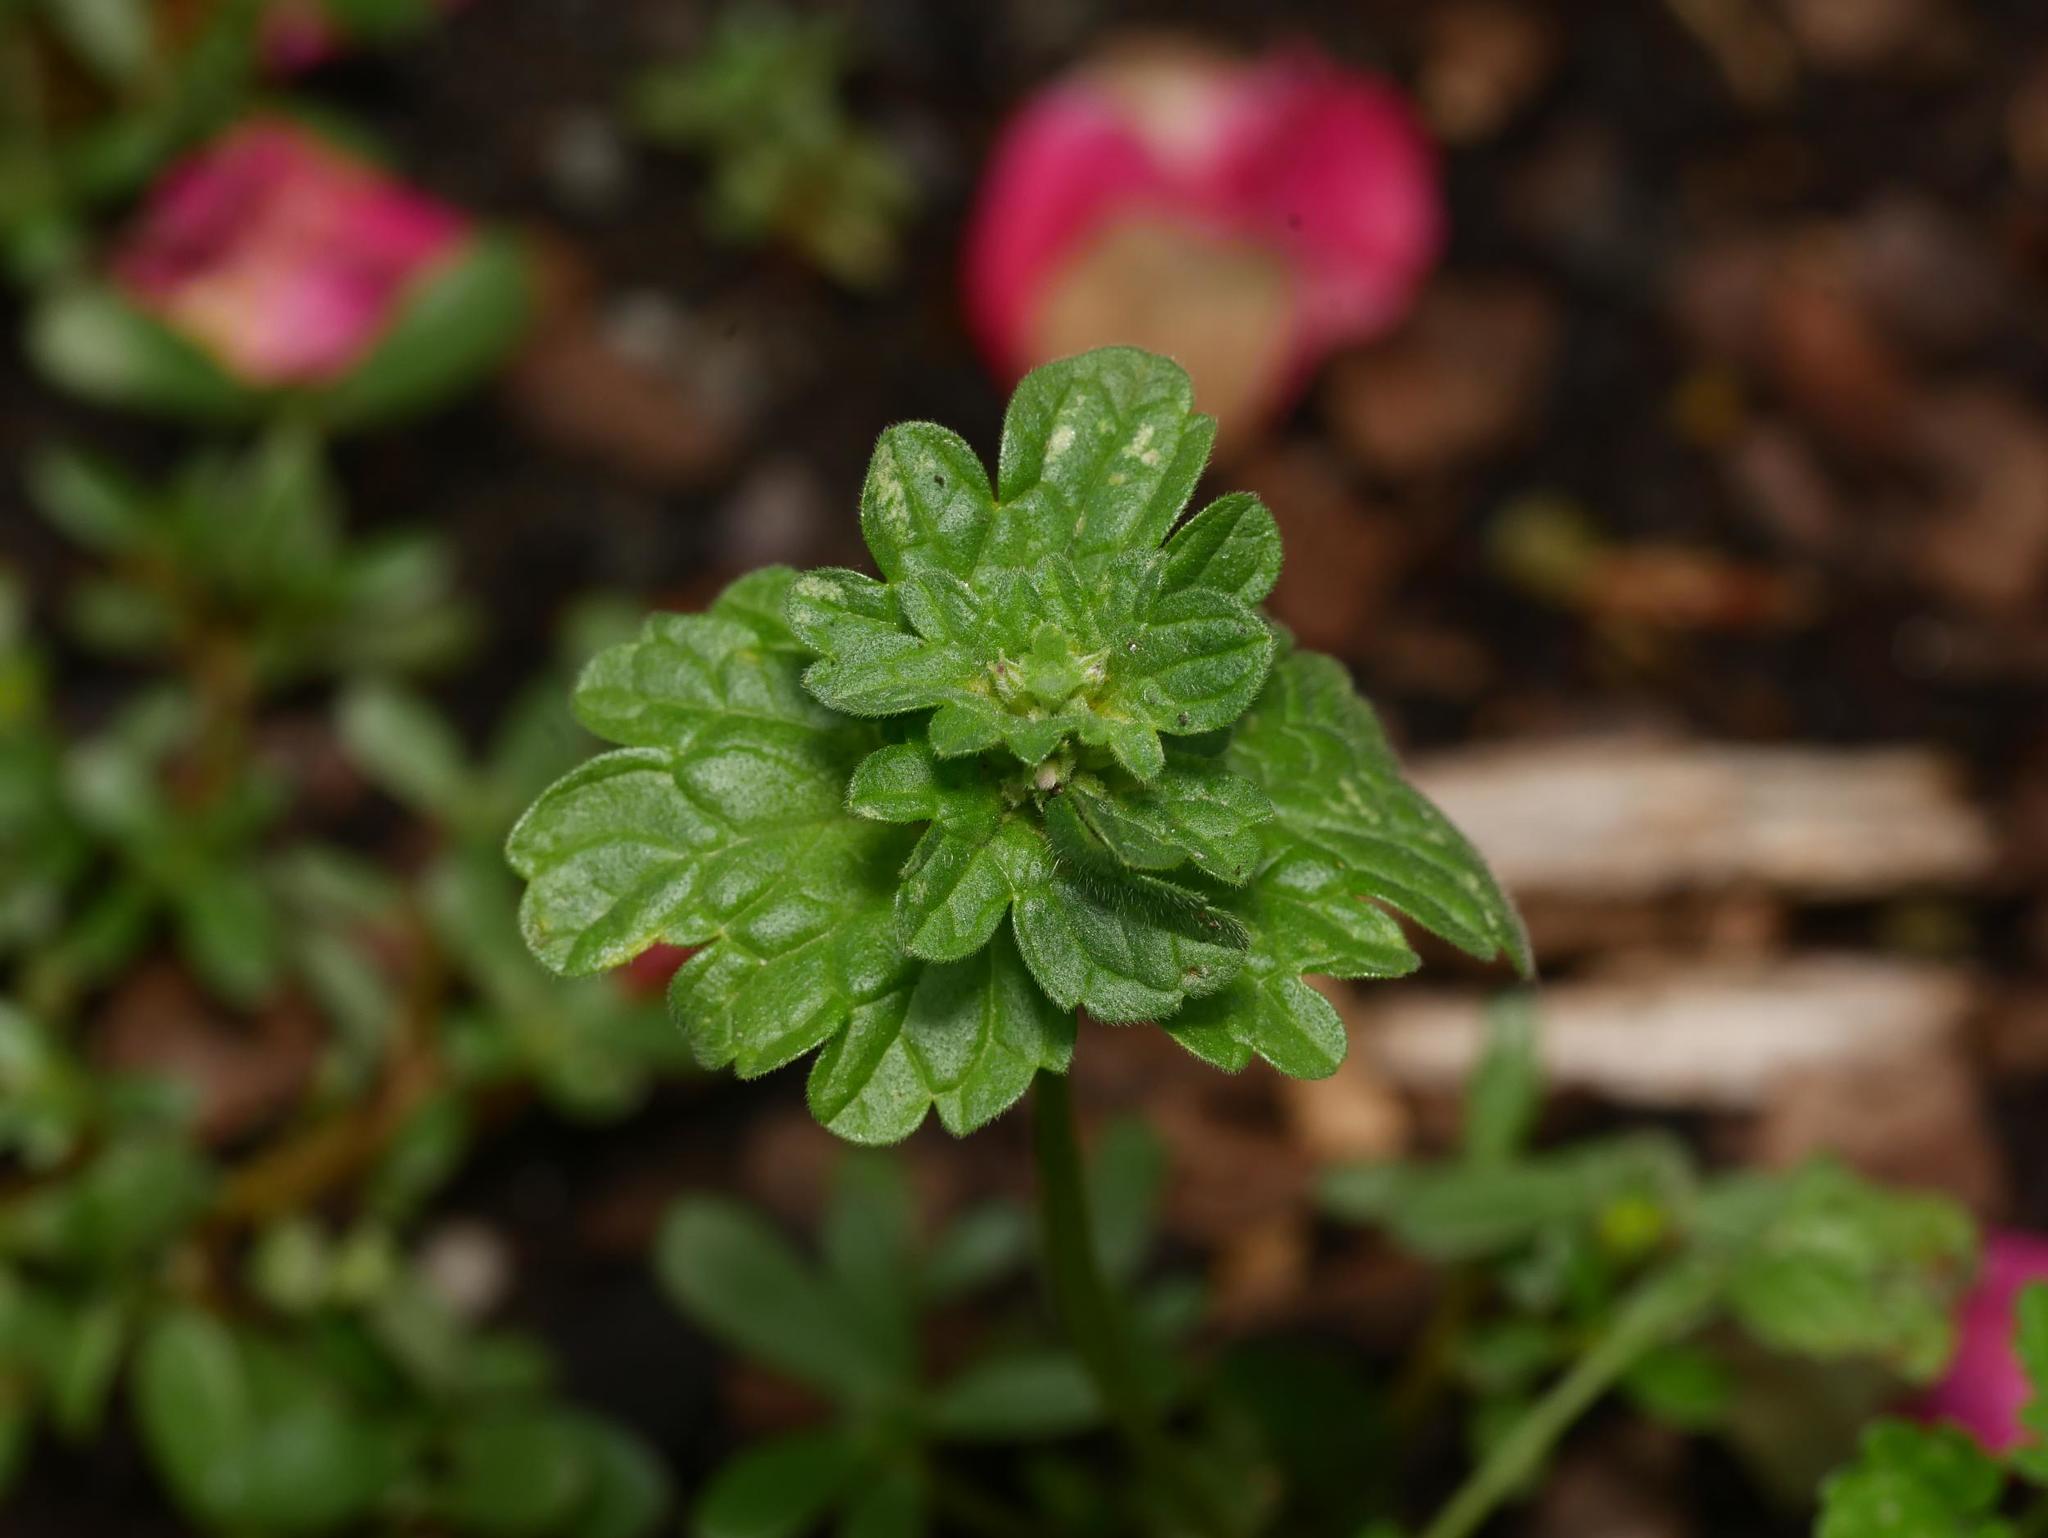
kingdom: Plantae
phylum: Tracheophyta
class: Magnoliopsida
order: Lamiales
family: Lamiaceae
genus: Lamium
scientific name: Lamium amplexicaule
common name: Henbit dead-nettle
